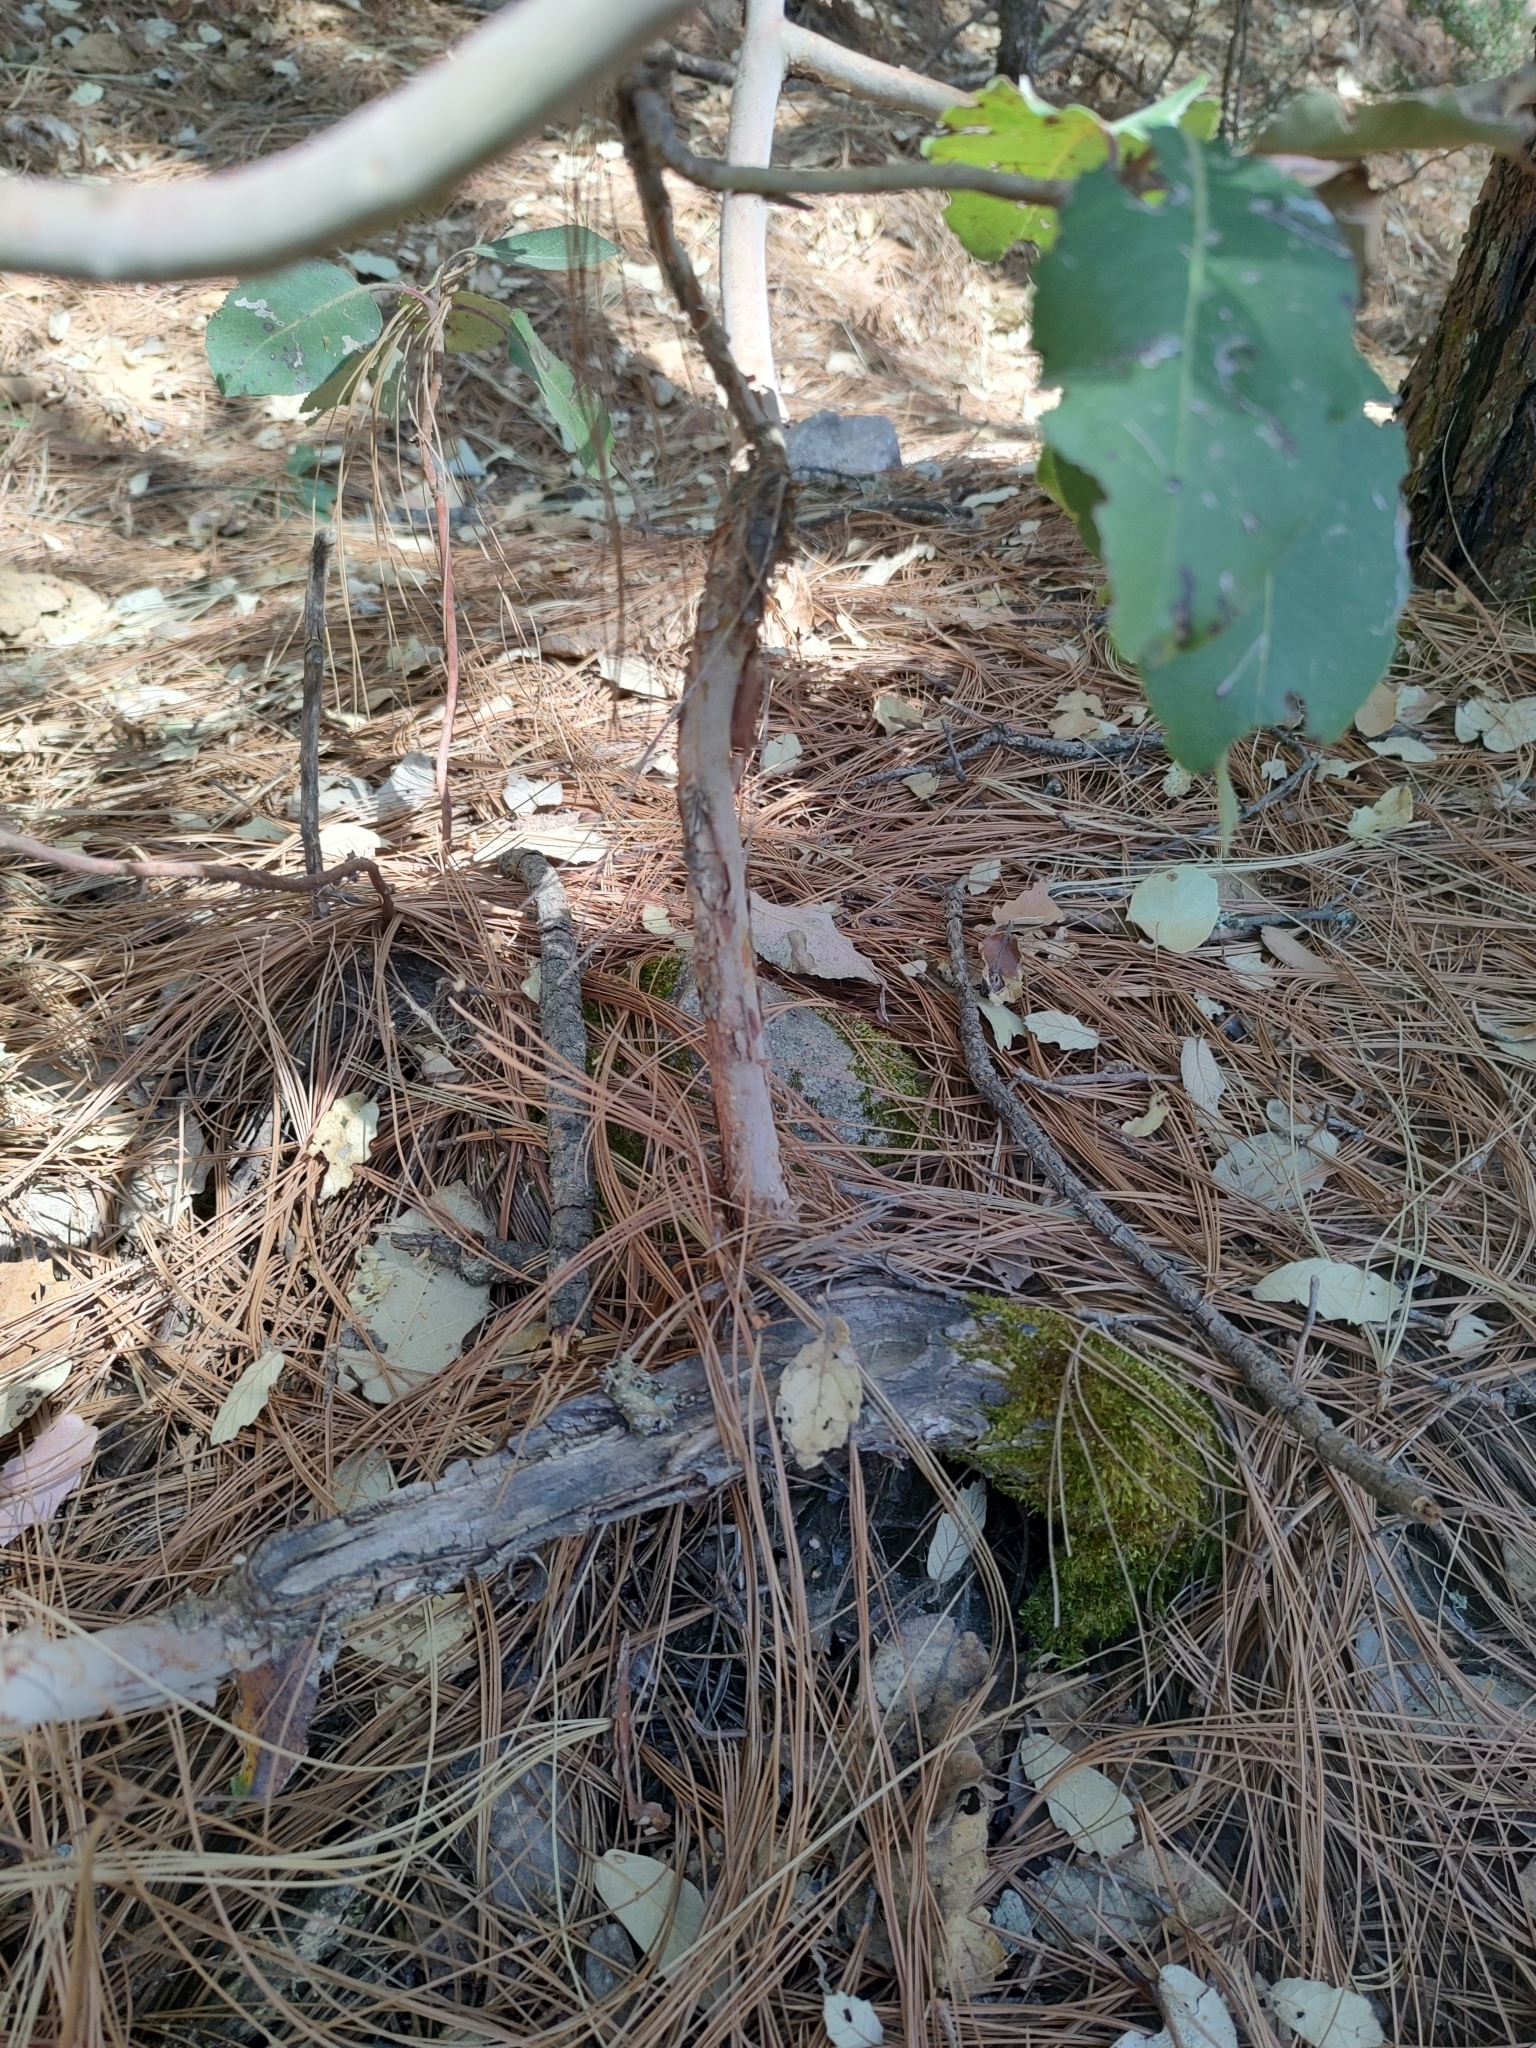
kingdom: Plantae
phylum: Tracheophyta
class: Magnoliopsida
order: Ericales
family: Ericaceae
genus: Arbutus
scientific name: Arbutus xalapensis
